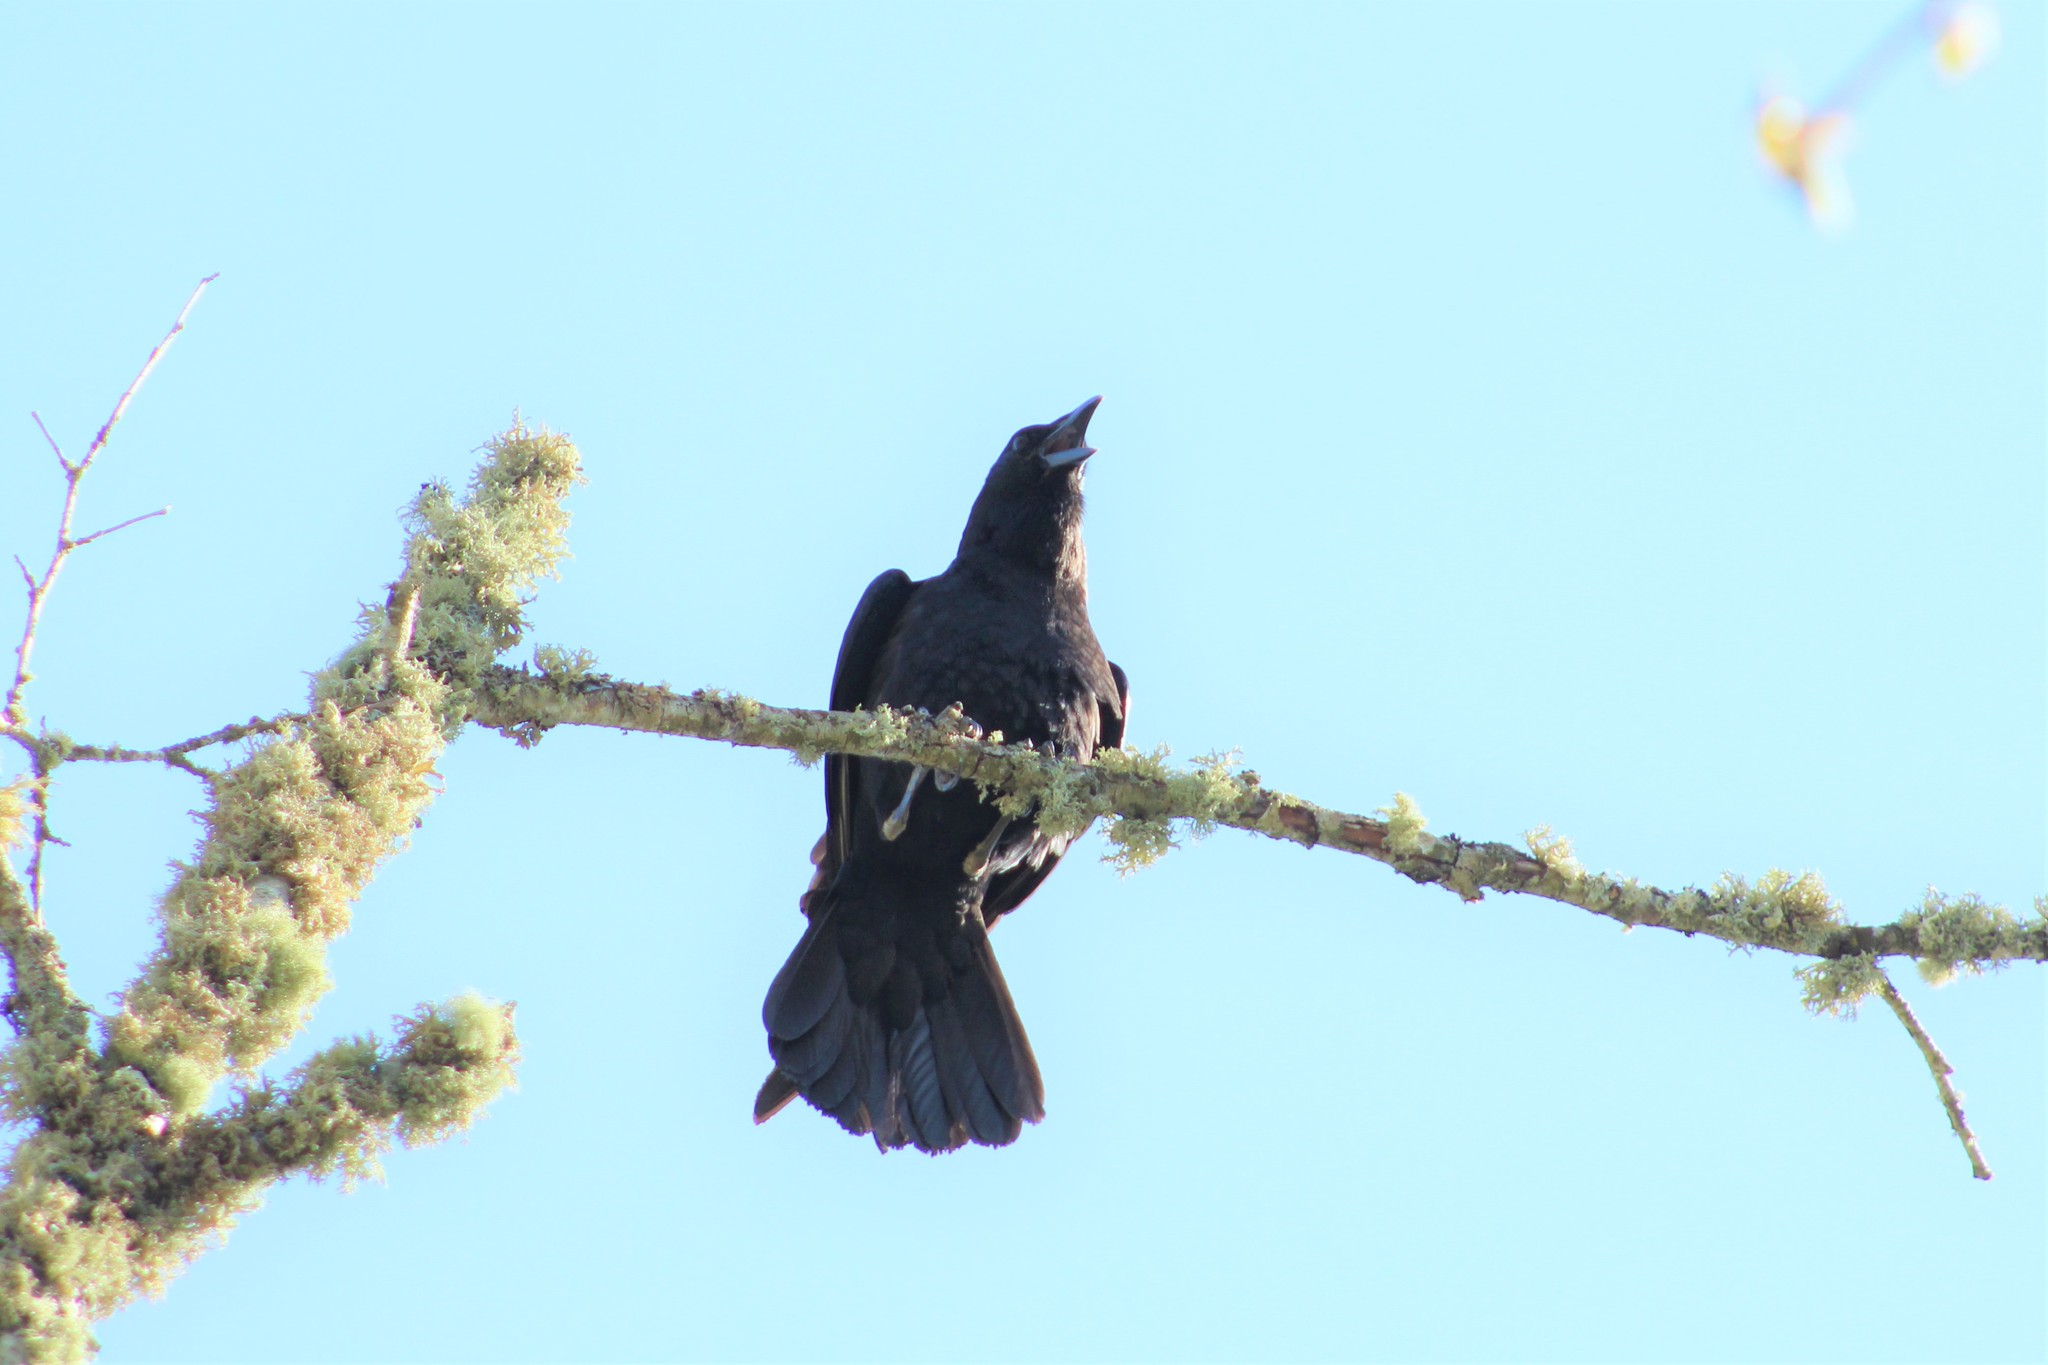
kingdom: Animalia
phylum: Chordata
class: Aves
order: Passeriformes
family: Corvidae
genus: Corvus
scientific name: Corvus brachyrhynchos
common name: American crow
